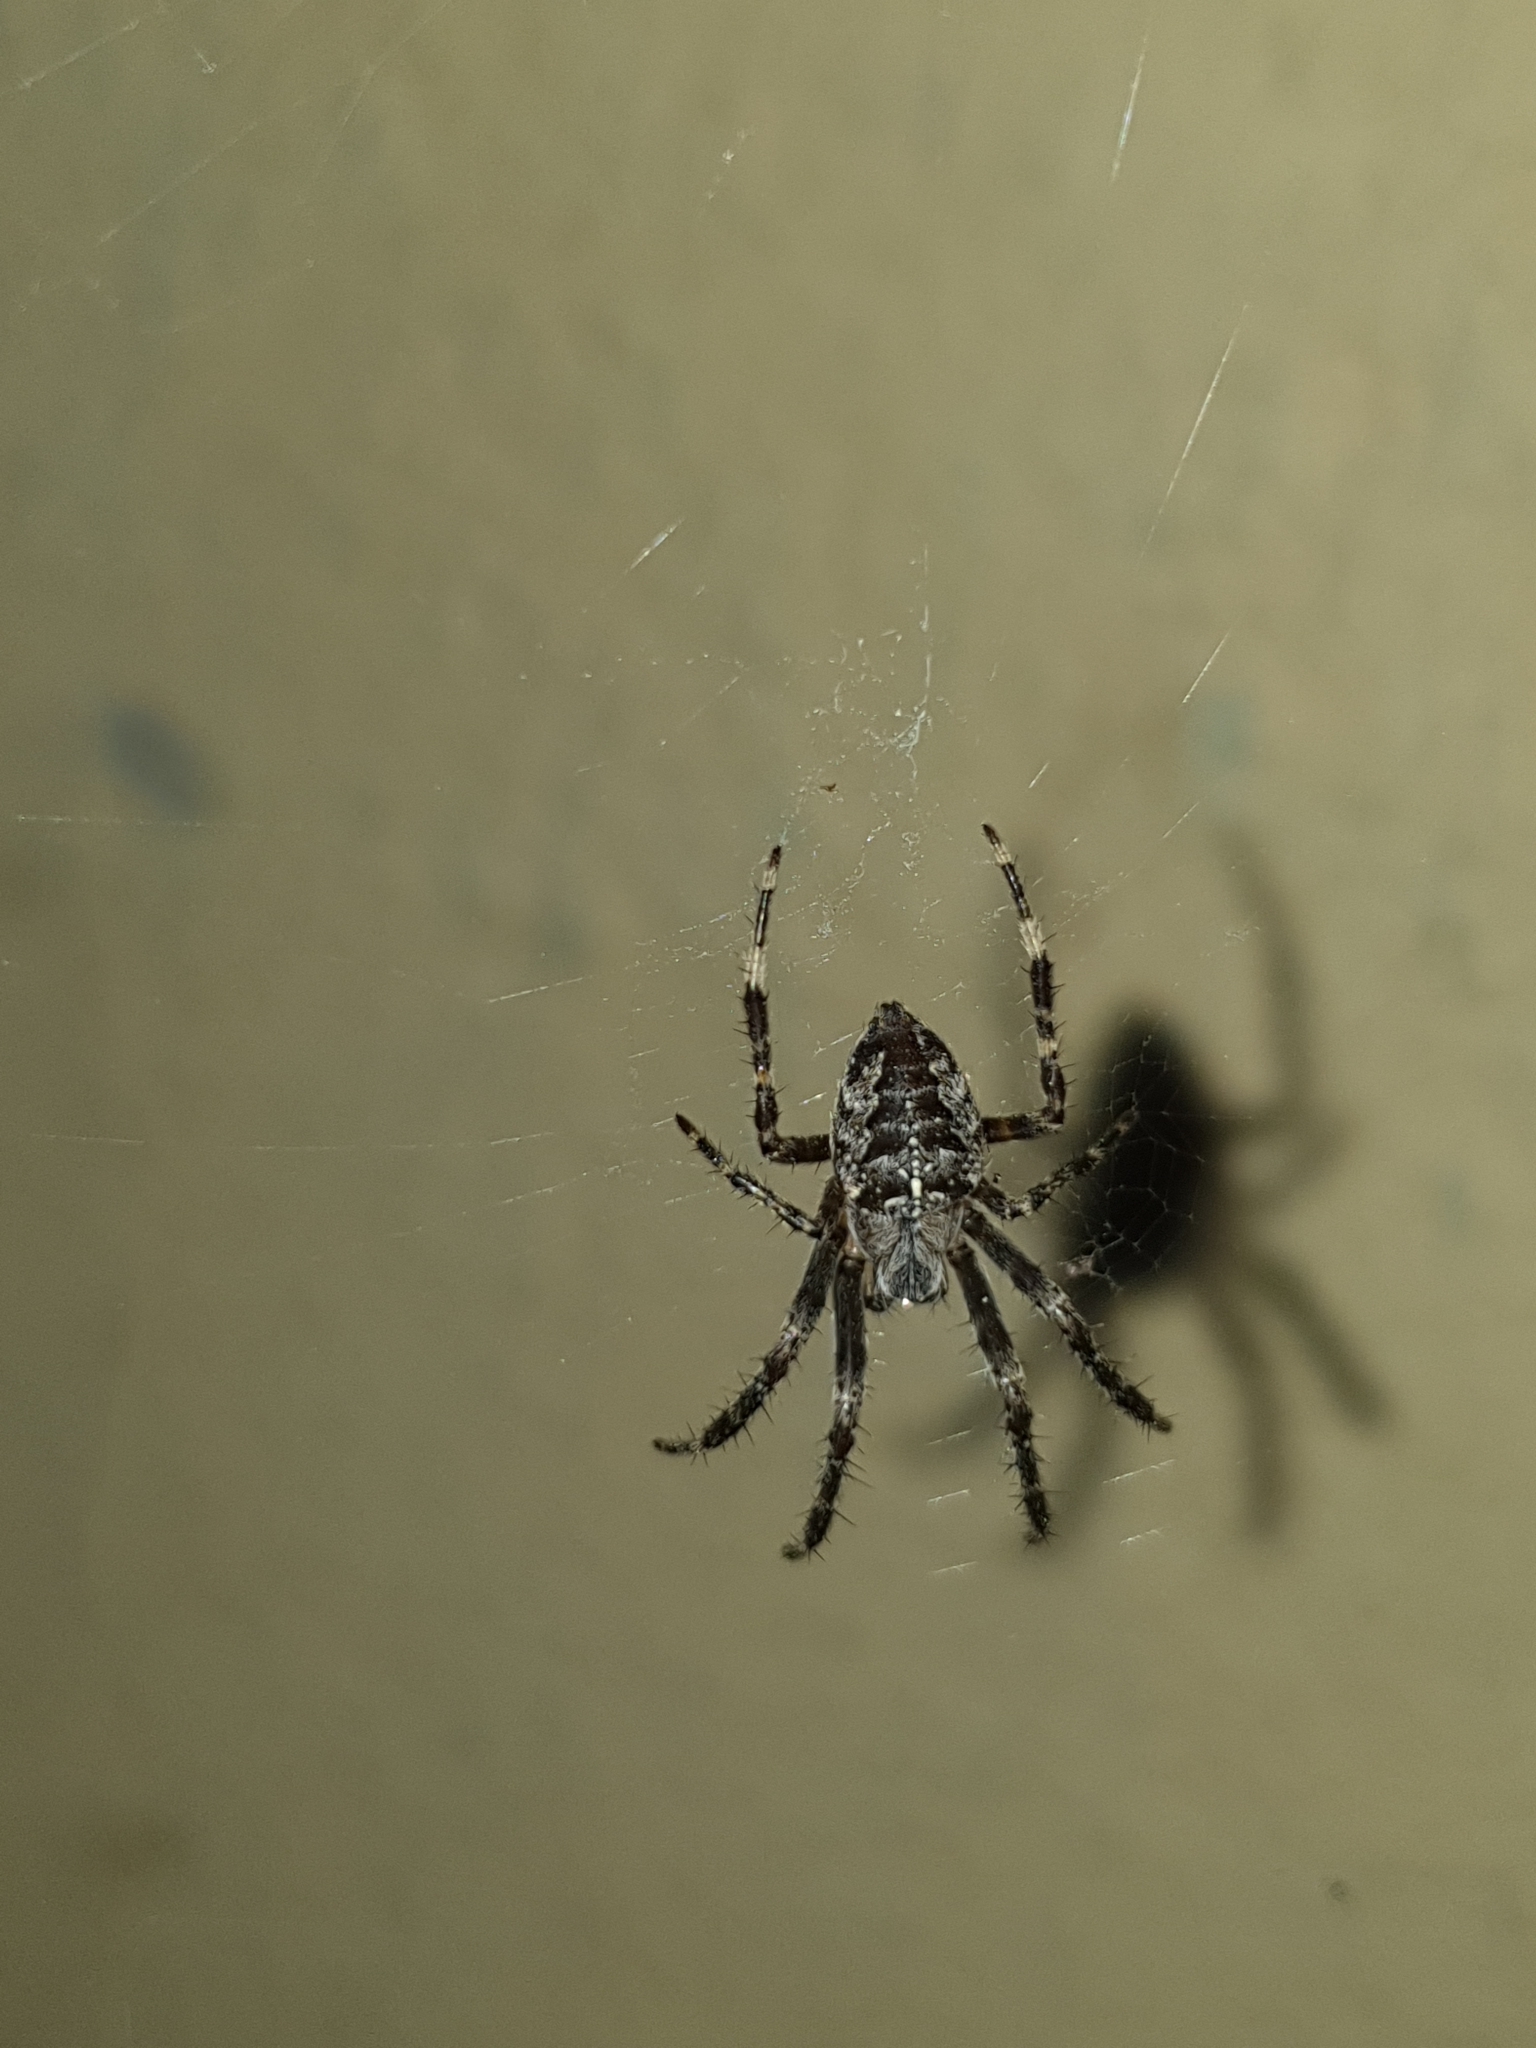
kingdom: Animalia
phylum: Arthropoda
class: Arachnida
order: Araneae
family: Araneidae
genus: Araneus
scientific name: Araneus diadematus
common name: Cross orbweaver
